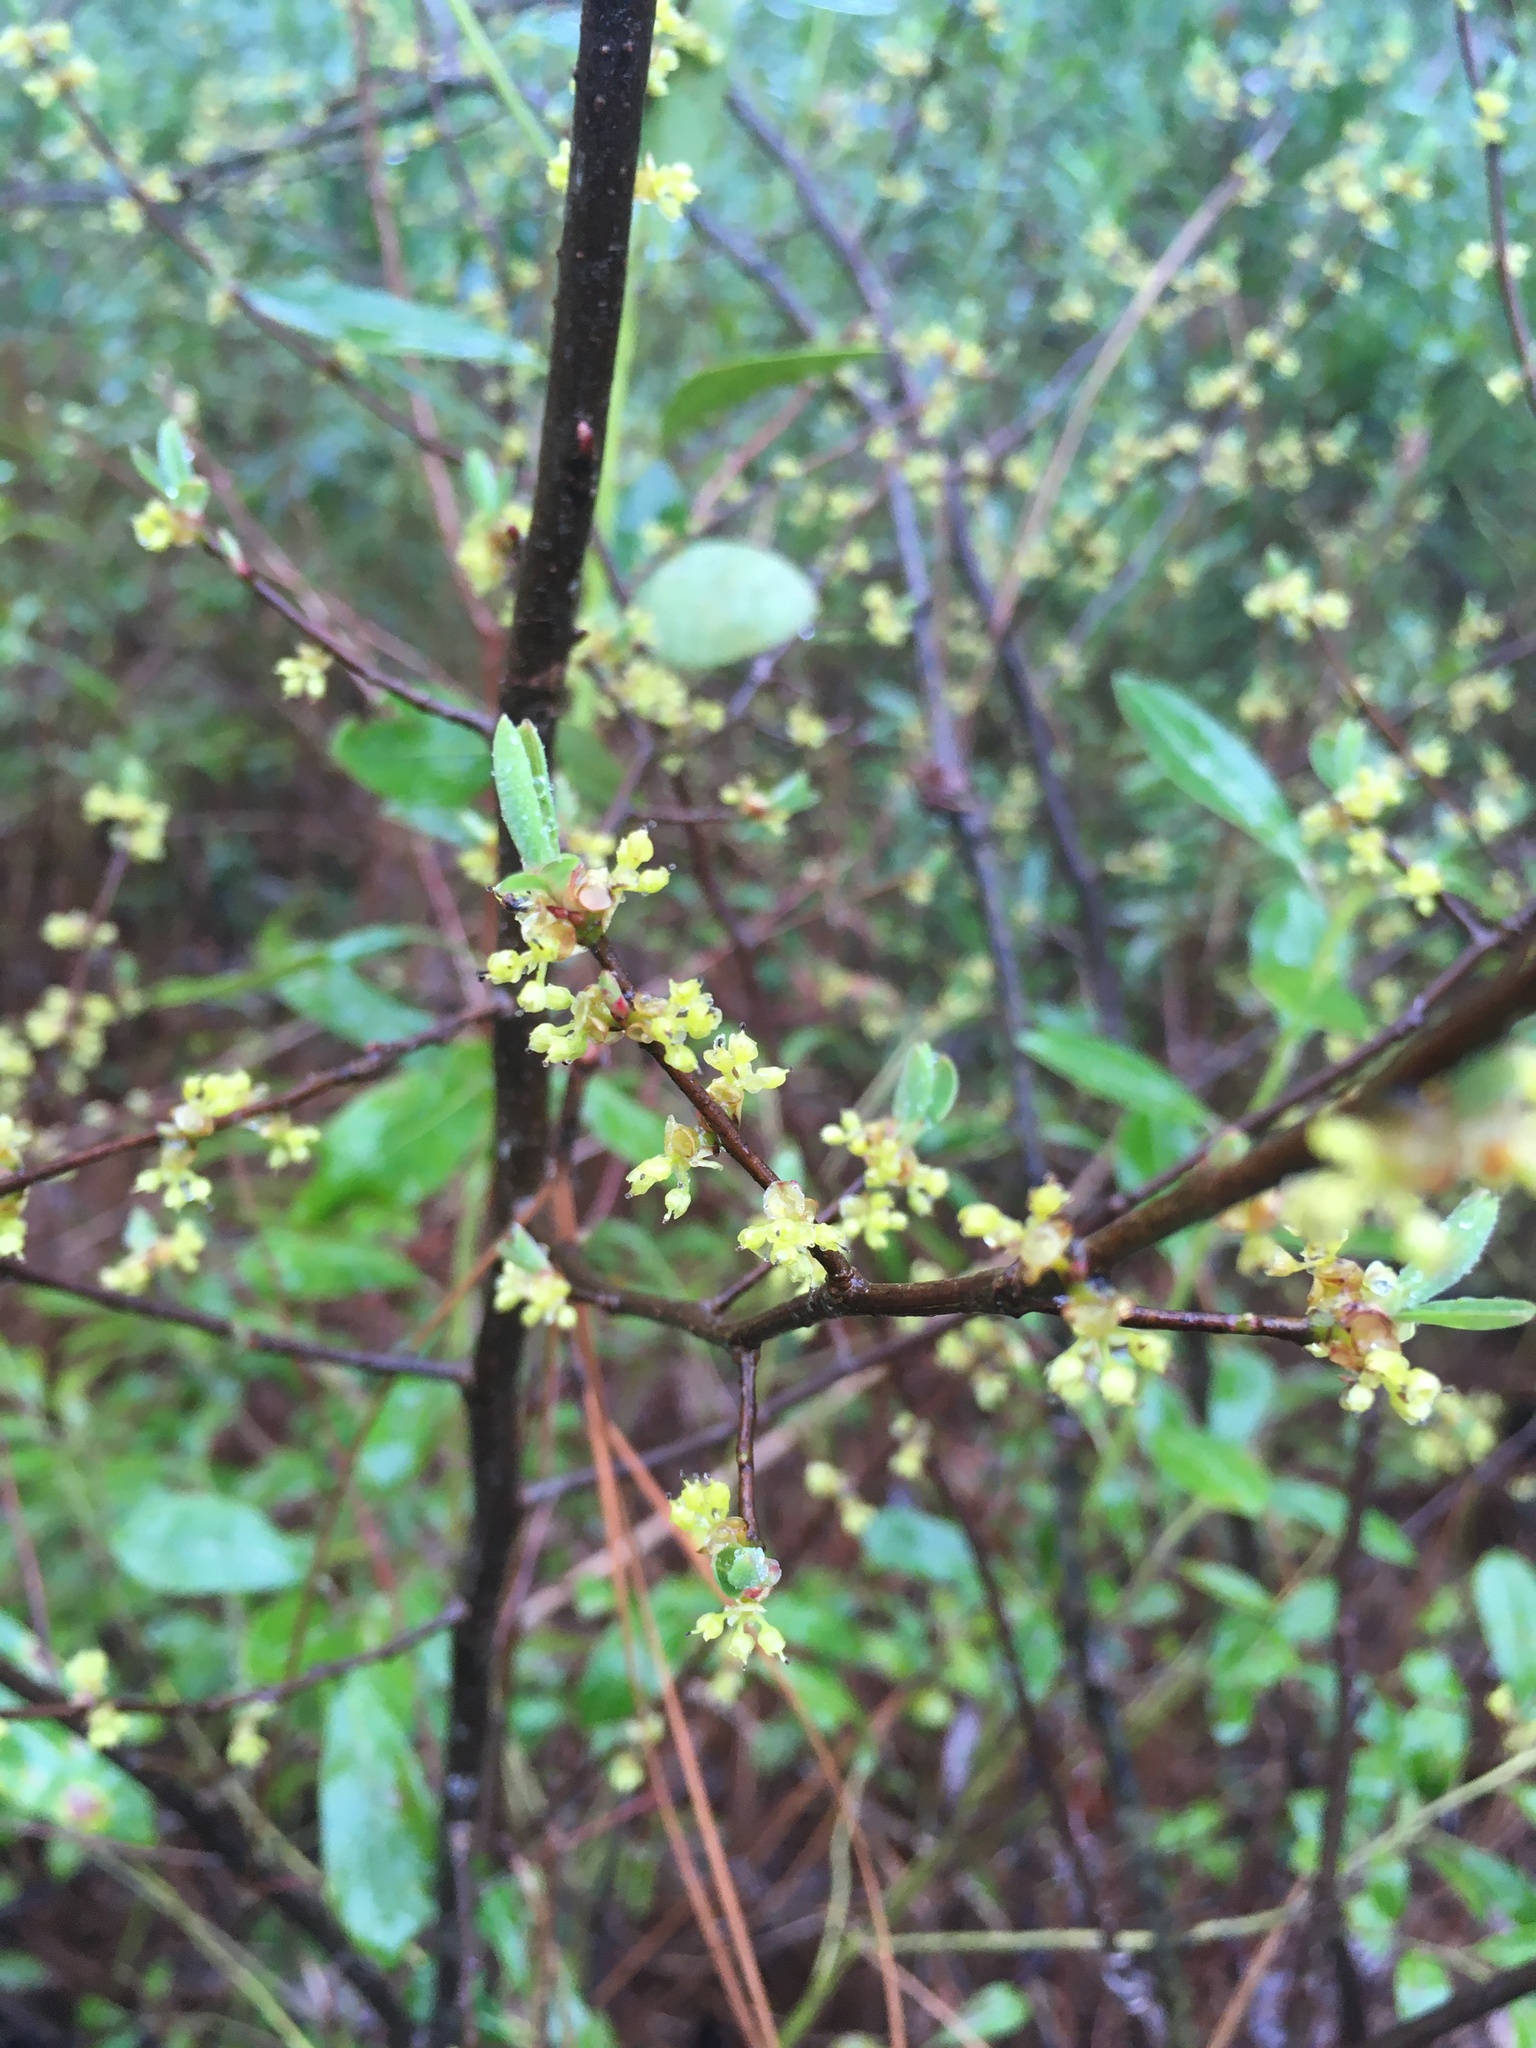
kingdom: Plantae
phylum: Tracheophyta
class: Magnoliopsida
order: Laurales
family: Lauraceae
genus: Lindera
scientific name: Lindera subcoriacea
